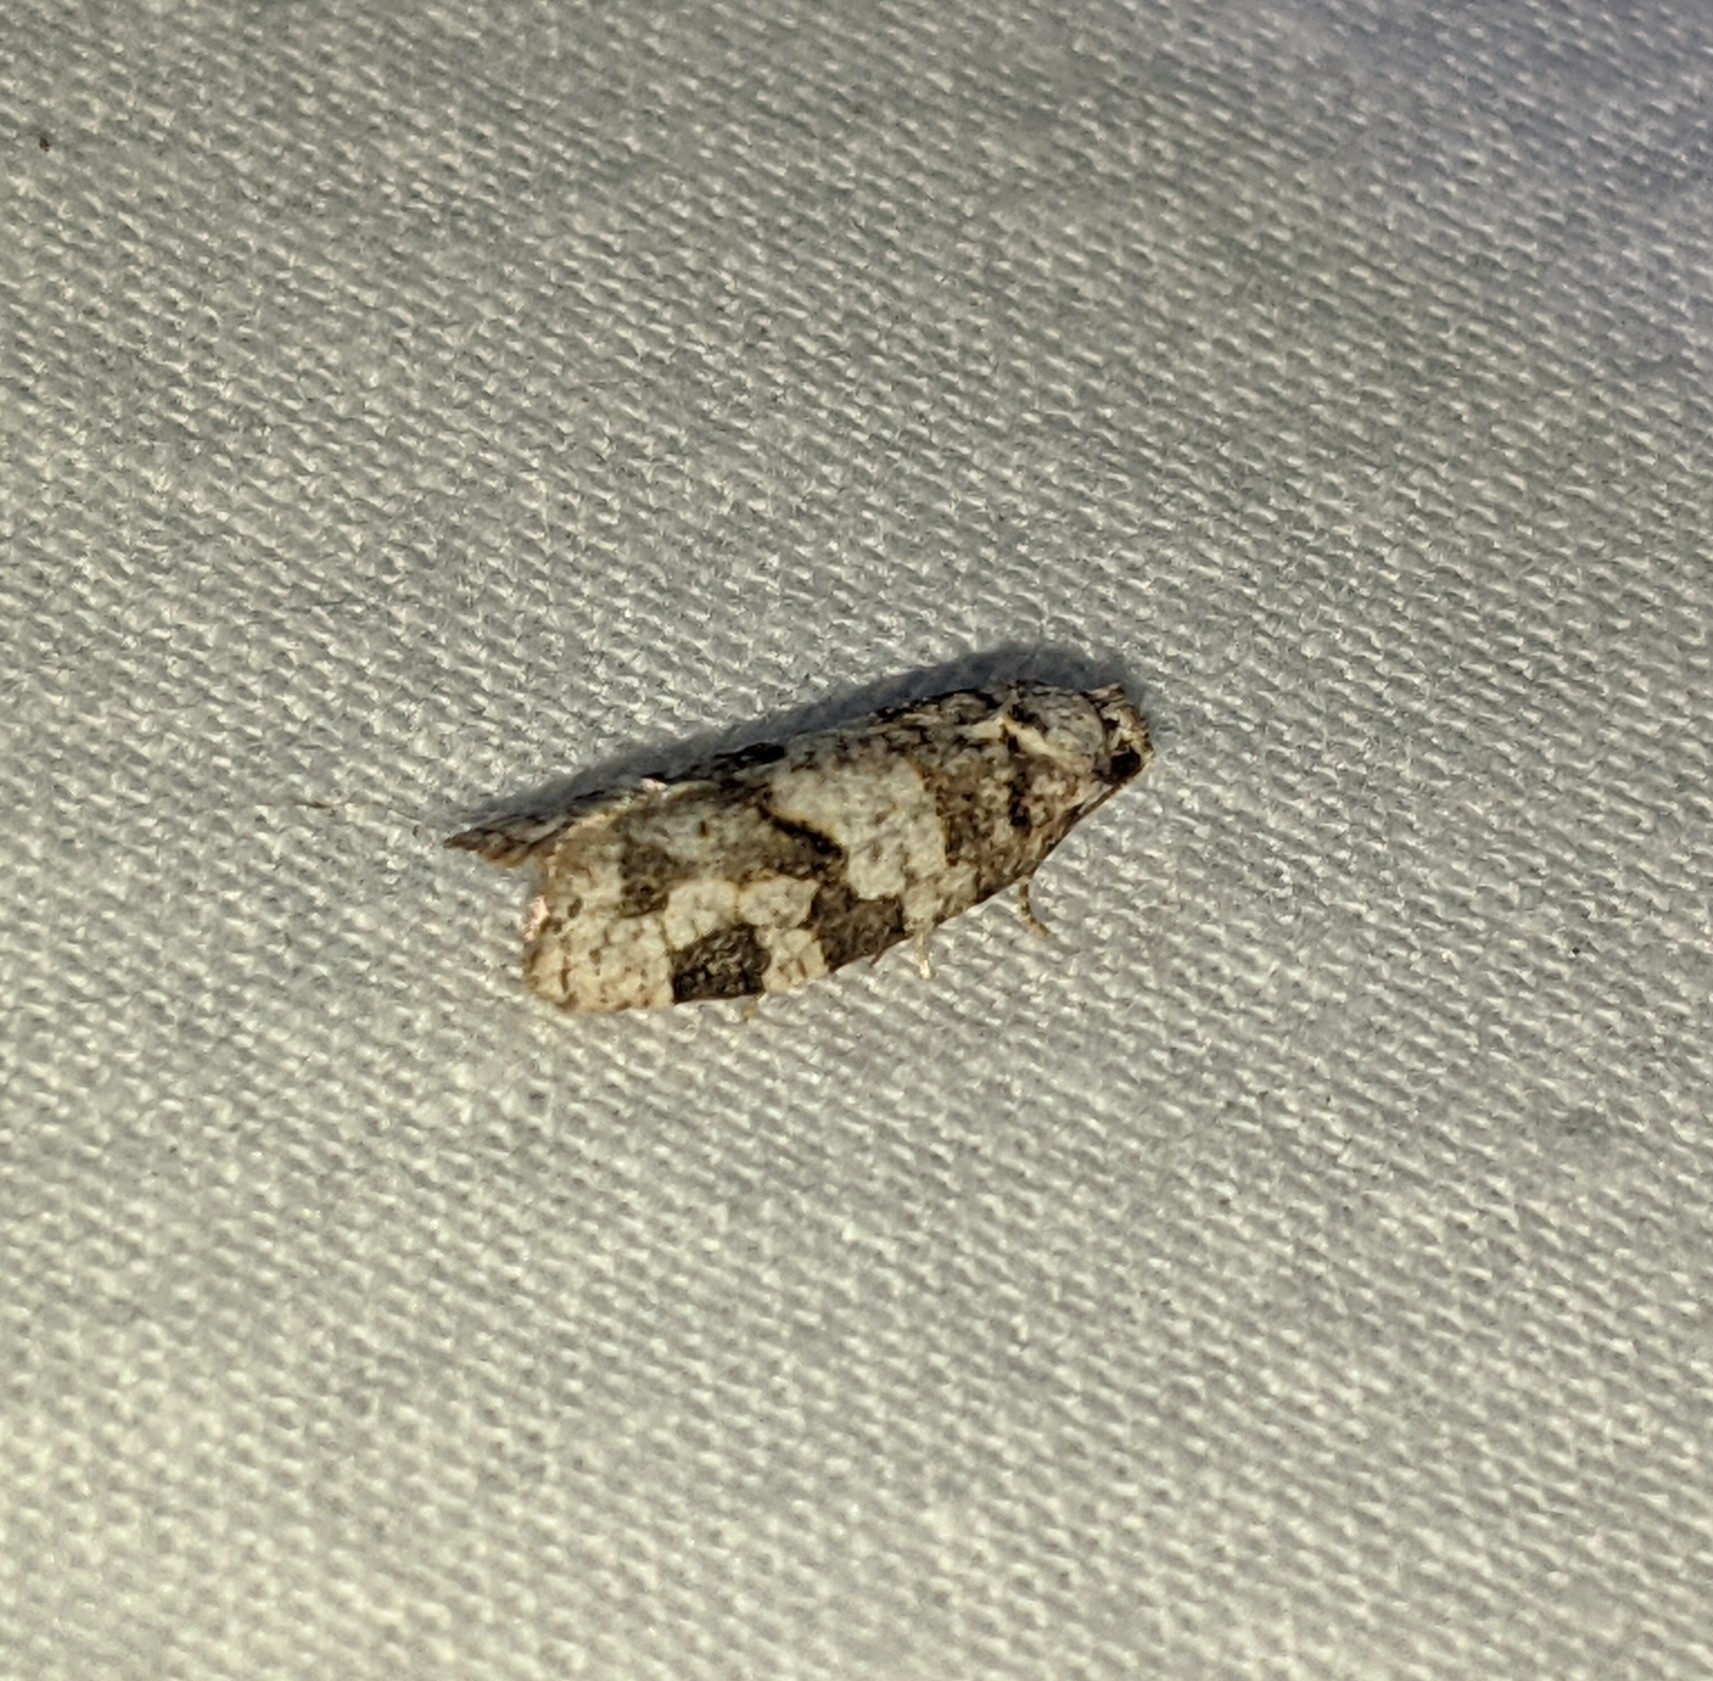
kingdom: Animalia
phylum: Arthropoda
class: Insecta
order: Lepidoptera
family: Tortricidae
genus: Argyrotaenia
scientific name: Argyrotaenia provana
